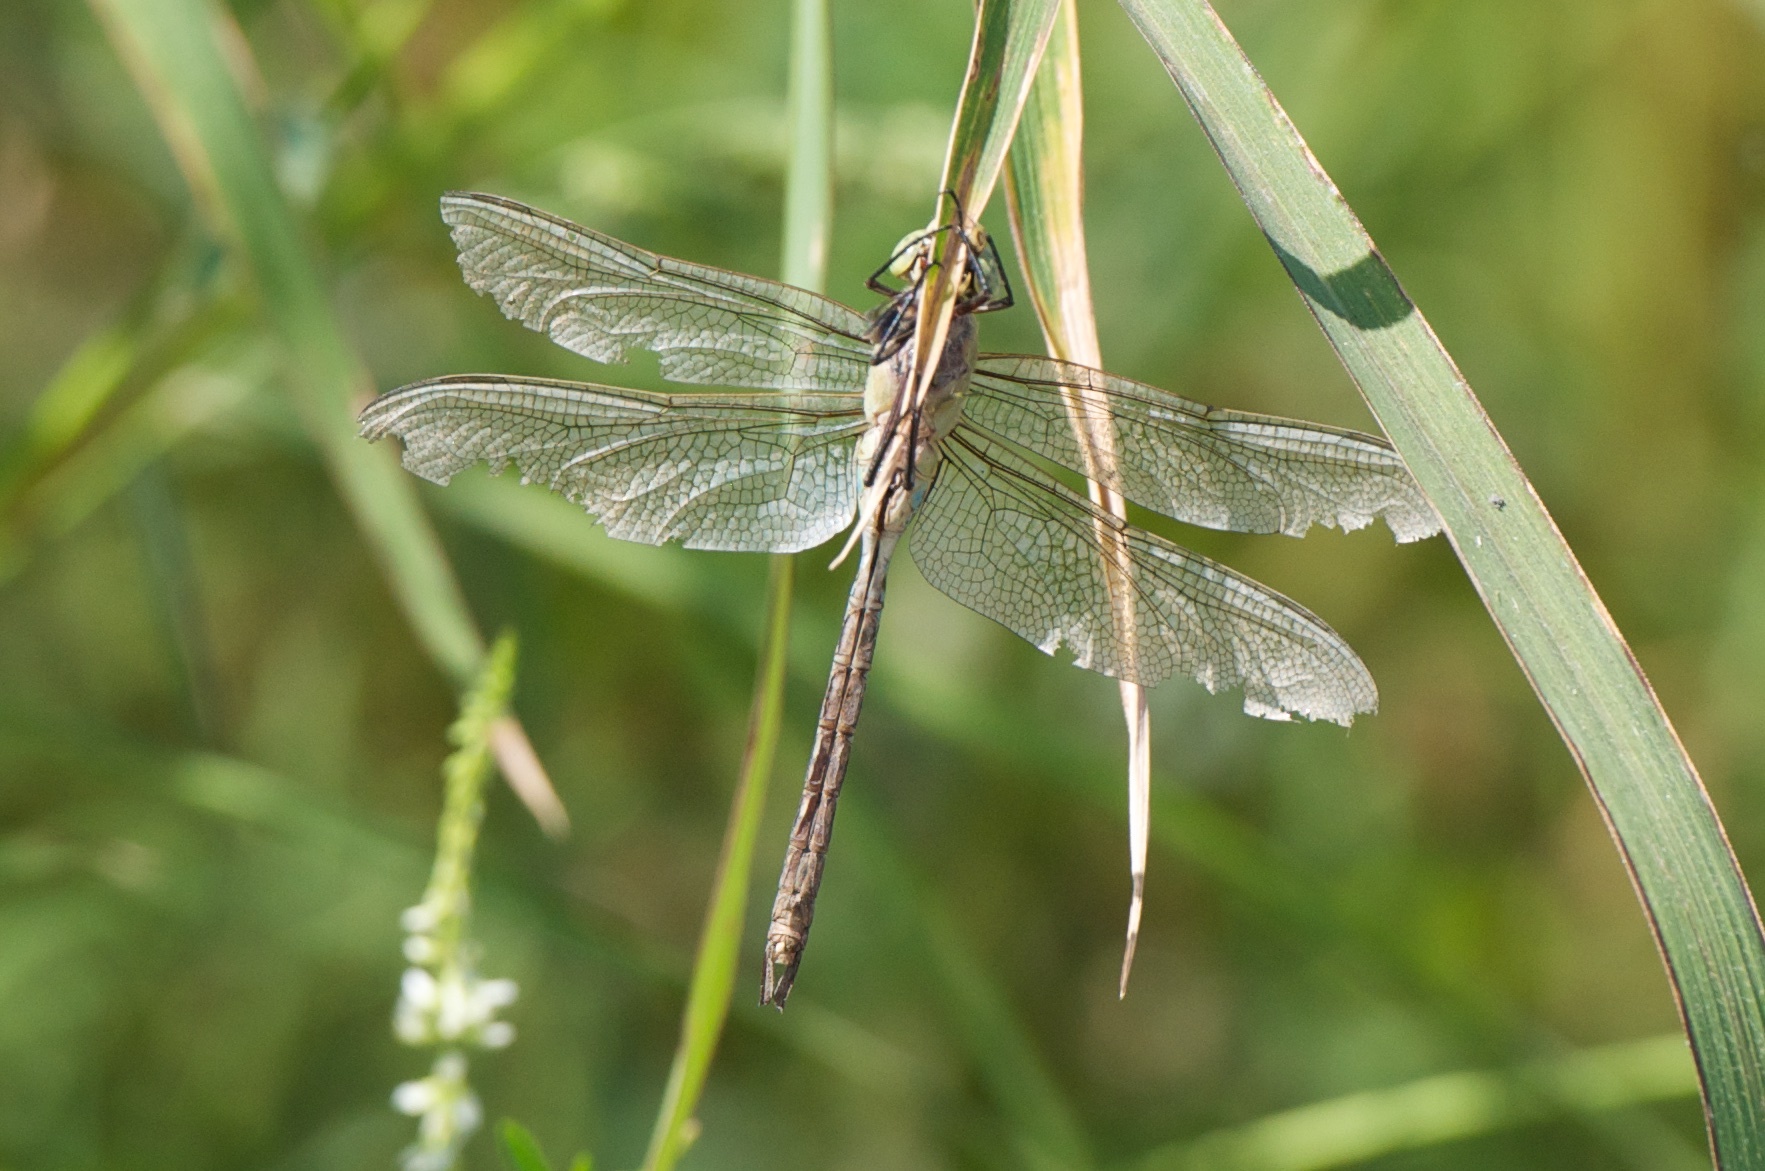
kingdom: Animalia
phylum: Arthropoda
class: Insecta
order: Odonata
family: Aeshnidae
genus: Anax
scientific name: Anax junius
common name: Common green darner
